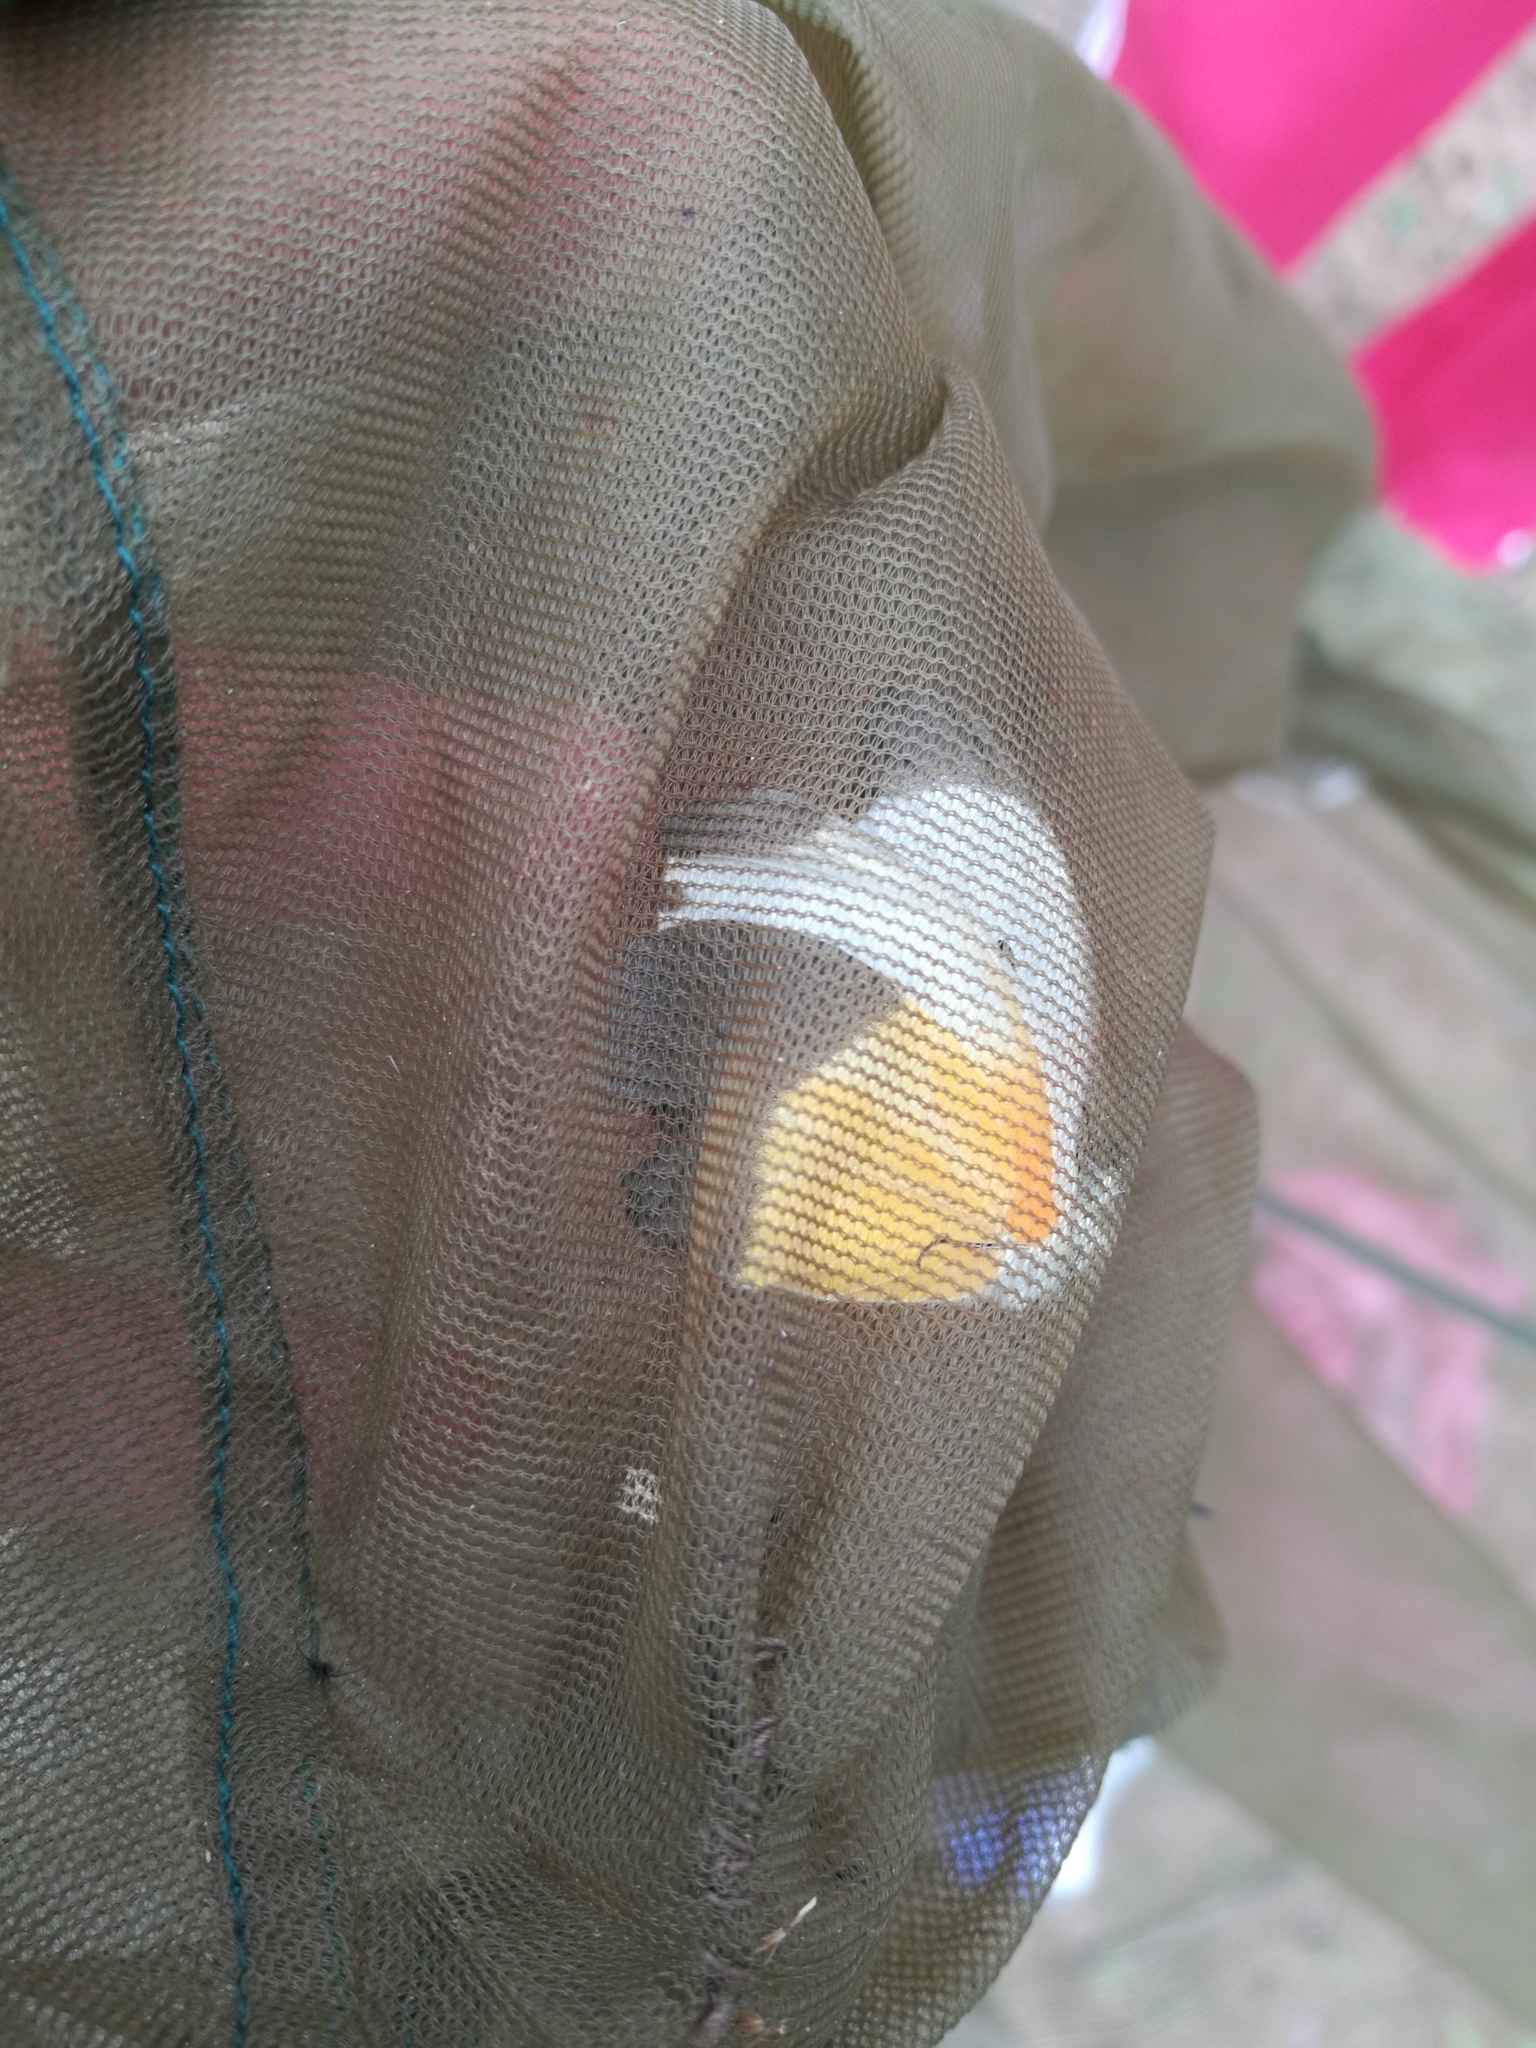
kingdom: Animalia
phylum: Arthropoda
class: Insecta
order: Lepidoptera
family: Pieridae
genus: Mylothris
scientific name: Mylothris chloris
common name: Western dotted border
